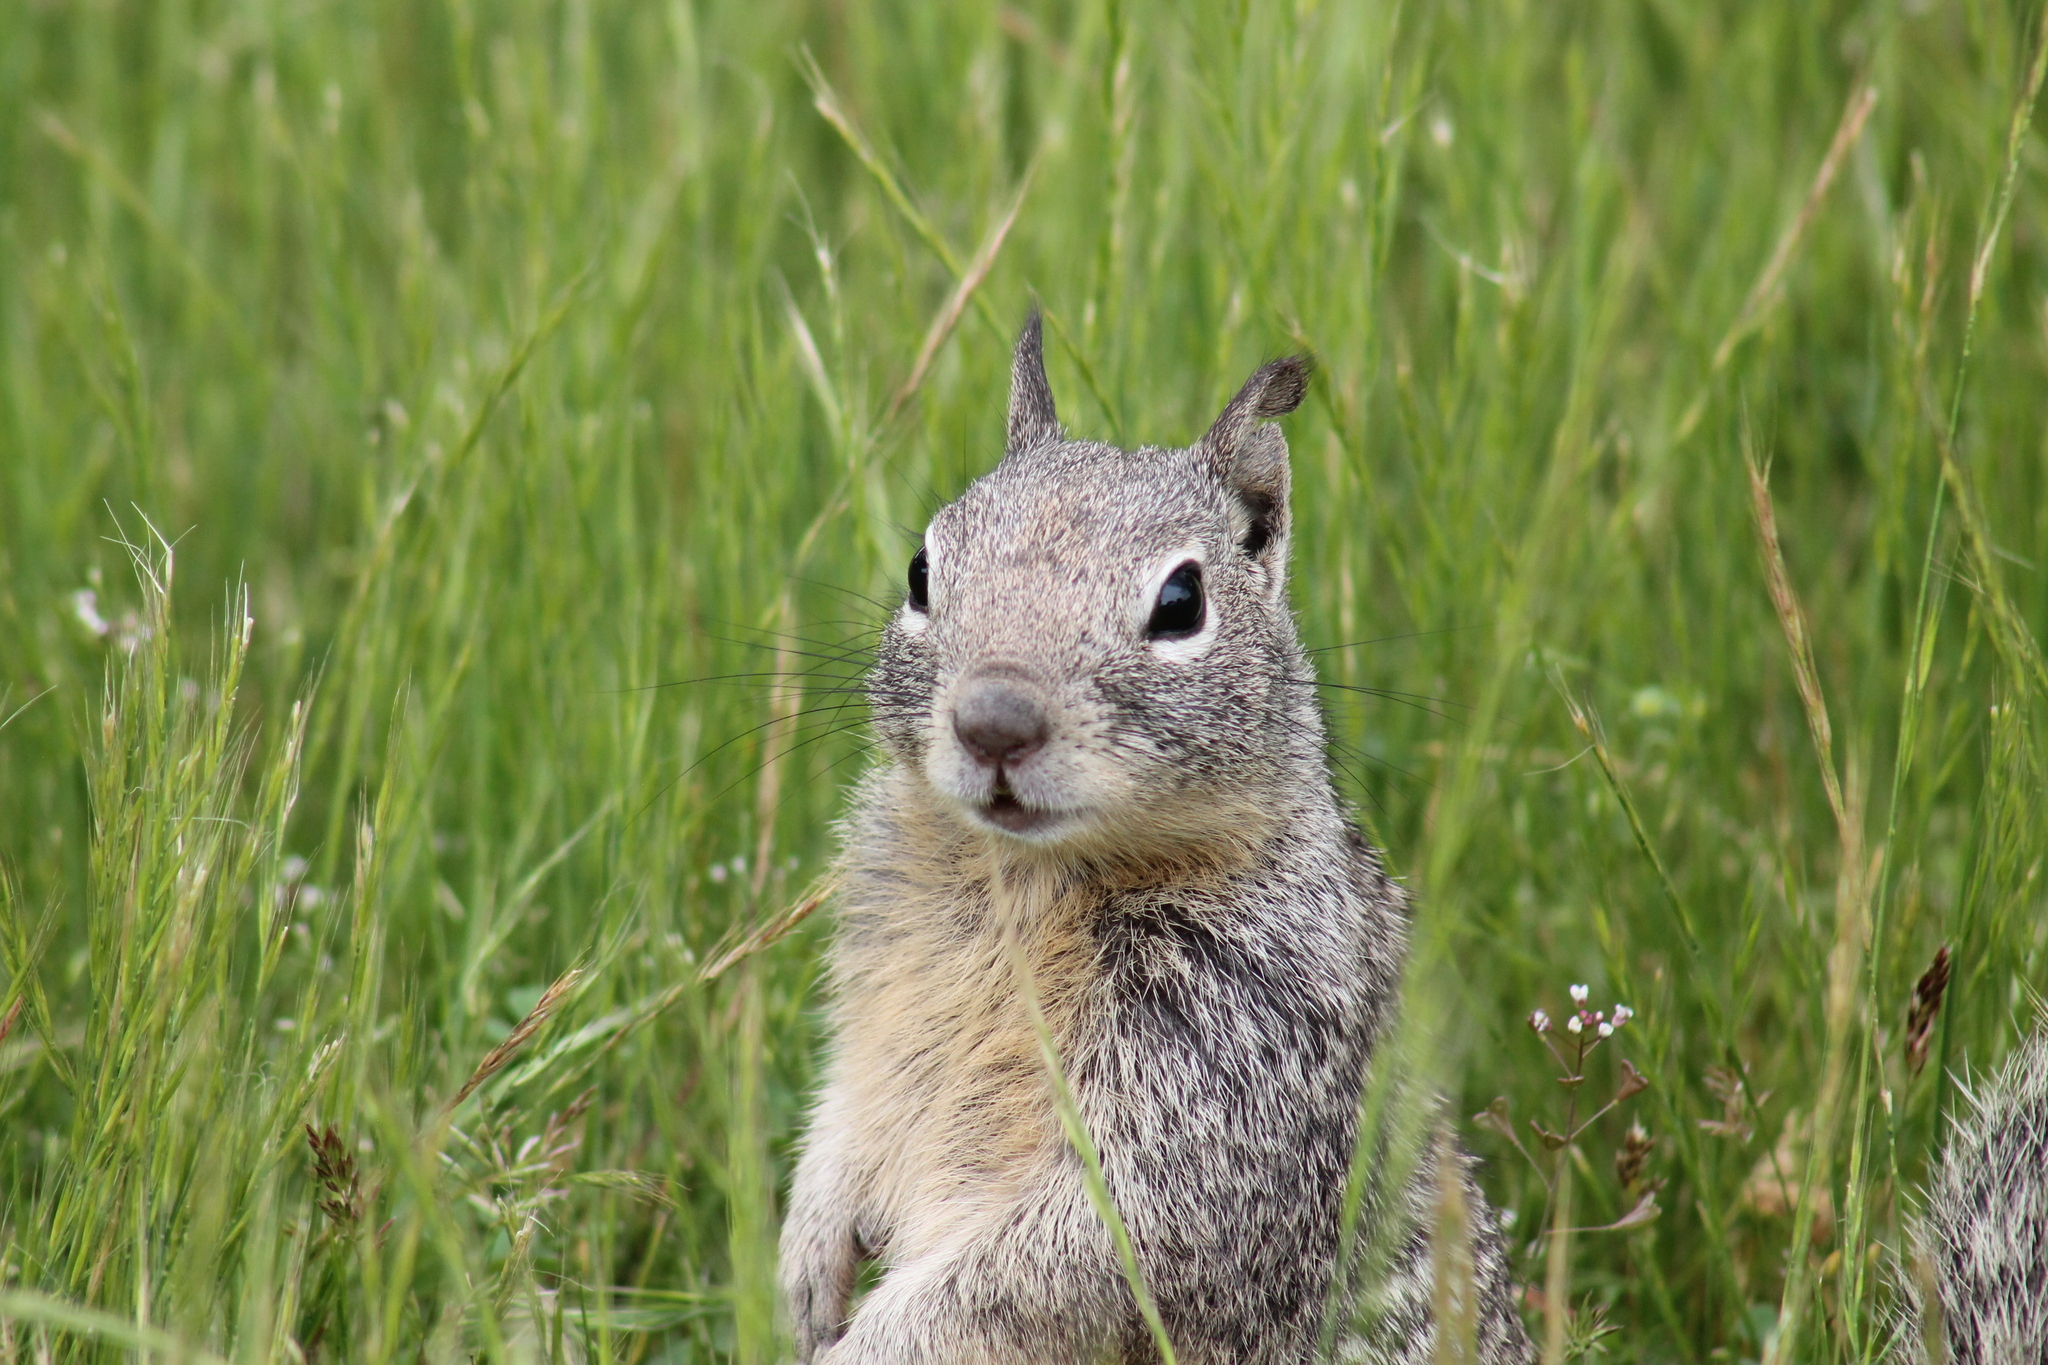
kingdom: Animalia
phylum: Chordata
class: Mammalia
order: Rodentia
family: Sciuridae
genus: Otospermophilus
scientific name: Otospermophilus beecheyi
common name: California ground squirrel
